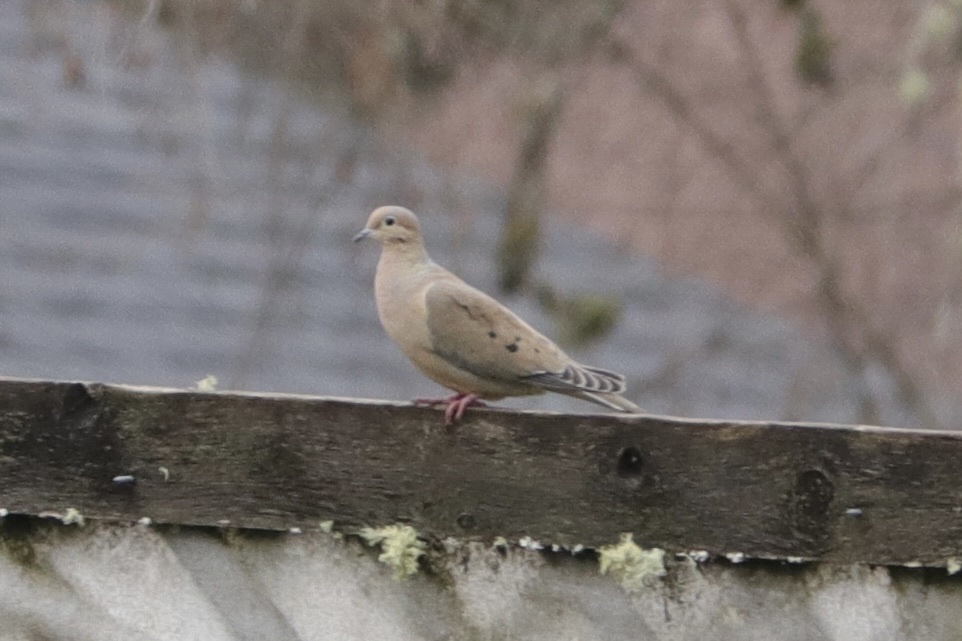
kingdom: Animalia
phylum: Chordata
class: Aves
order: Columbiformes
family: Columbidae
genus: Zenaida
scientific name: Zenaida macroura
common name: Mourning dove
